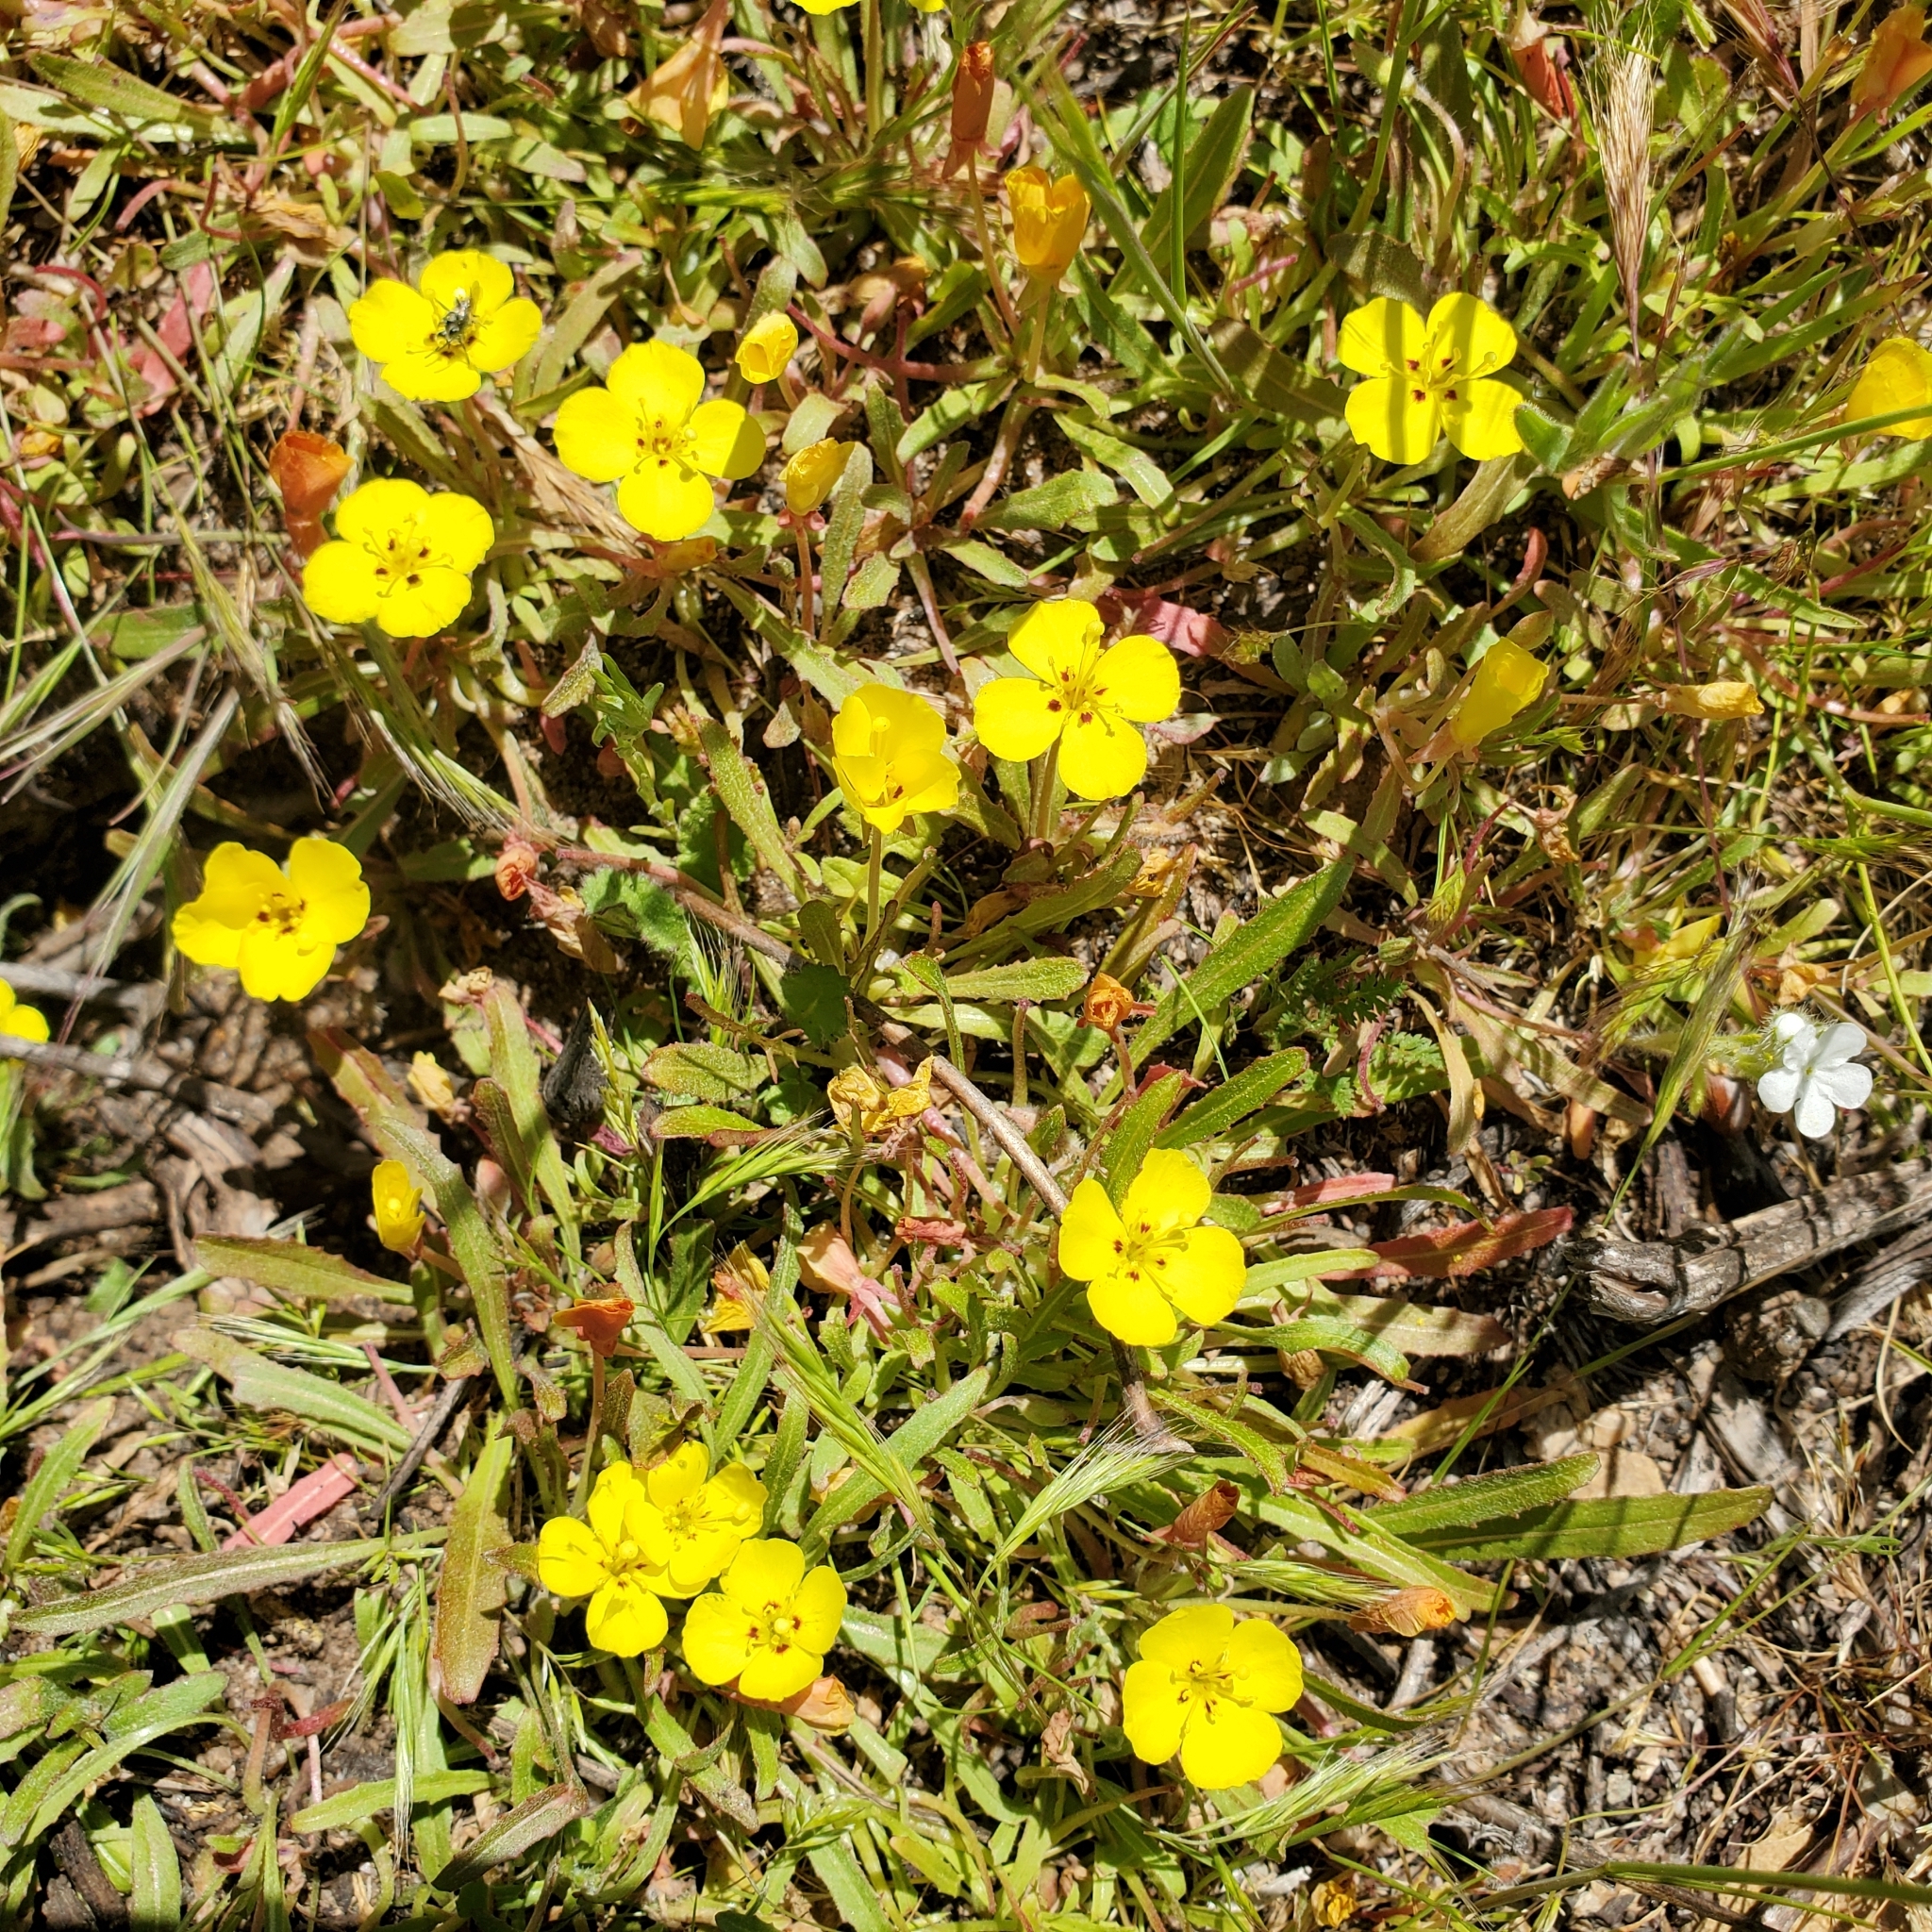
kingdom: Plantae
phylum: Tracheophyta
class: Magnoliopsida
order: Myrtales
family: Onagraceae
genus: Camissoniopsis
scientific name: Camissoniopsis bistorta
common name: Southern suncup
